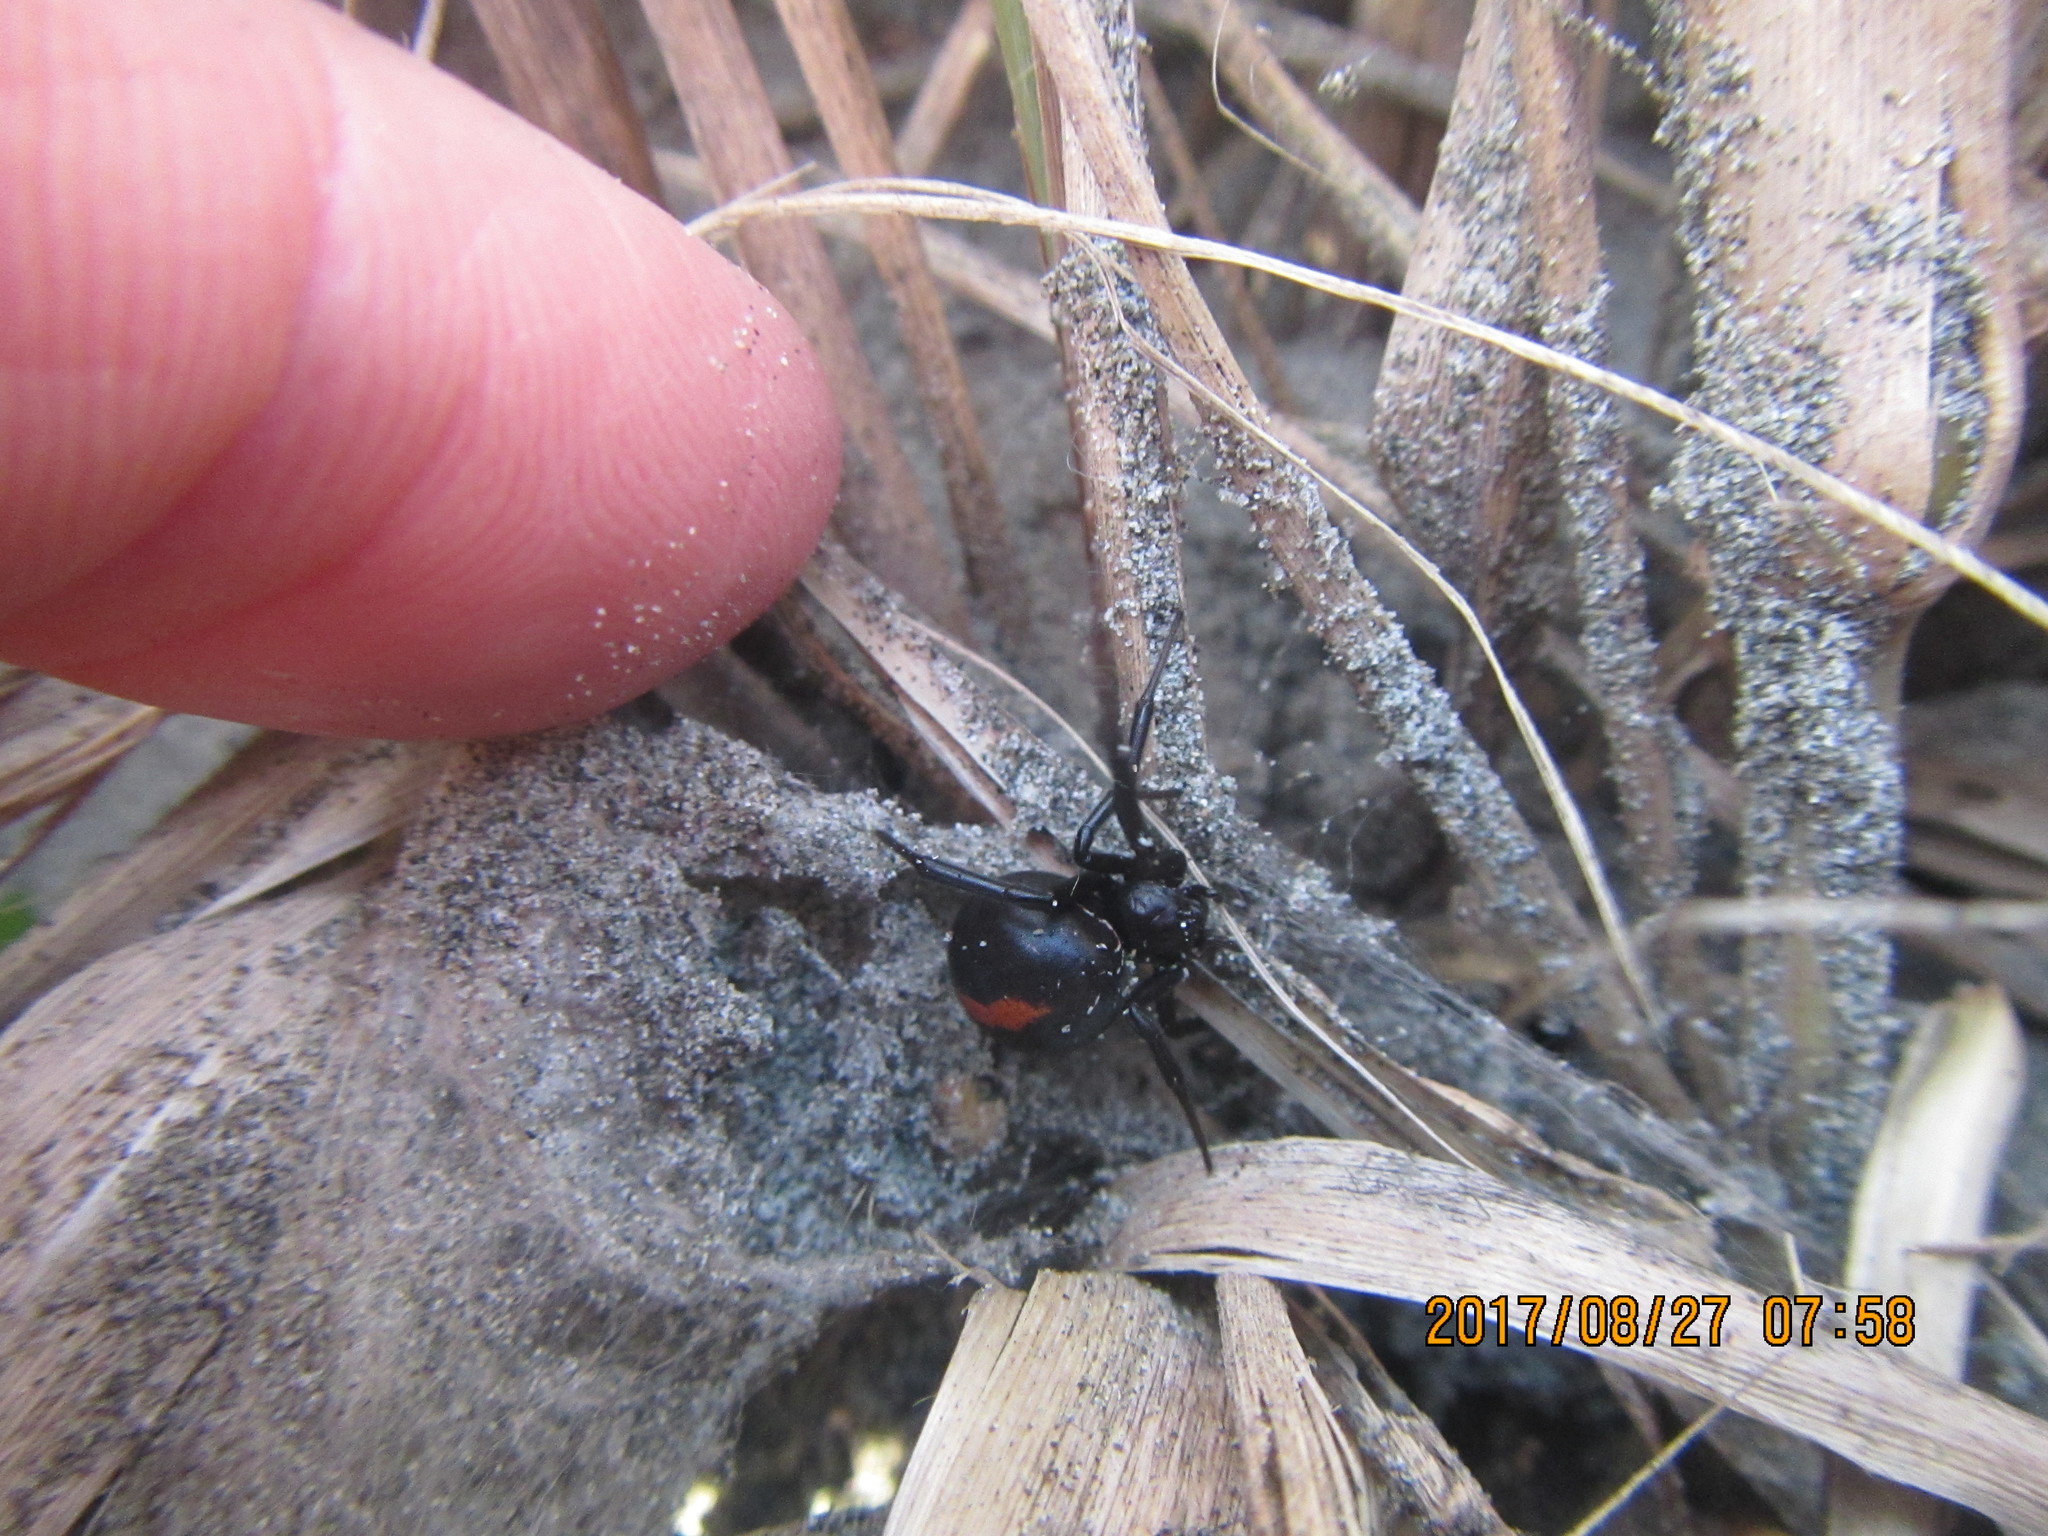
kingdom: Animalia
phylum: Arthropoda
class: Arachnida
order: Araneae
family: Theridiidae
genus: Latrodectus
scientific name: Latrodectus katipo
